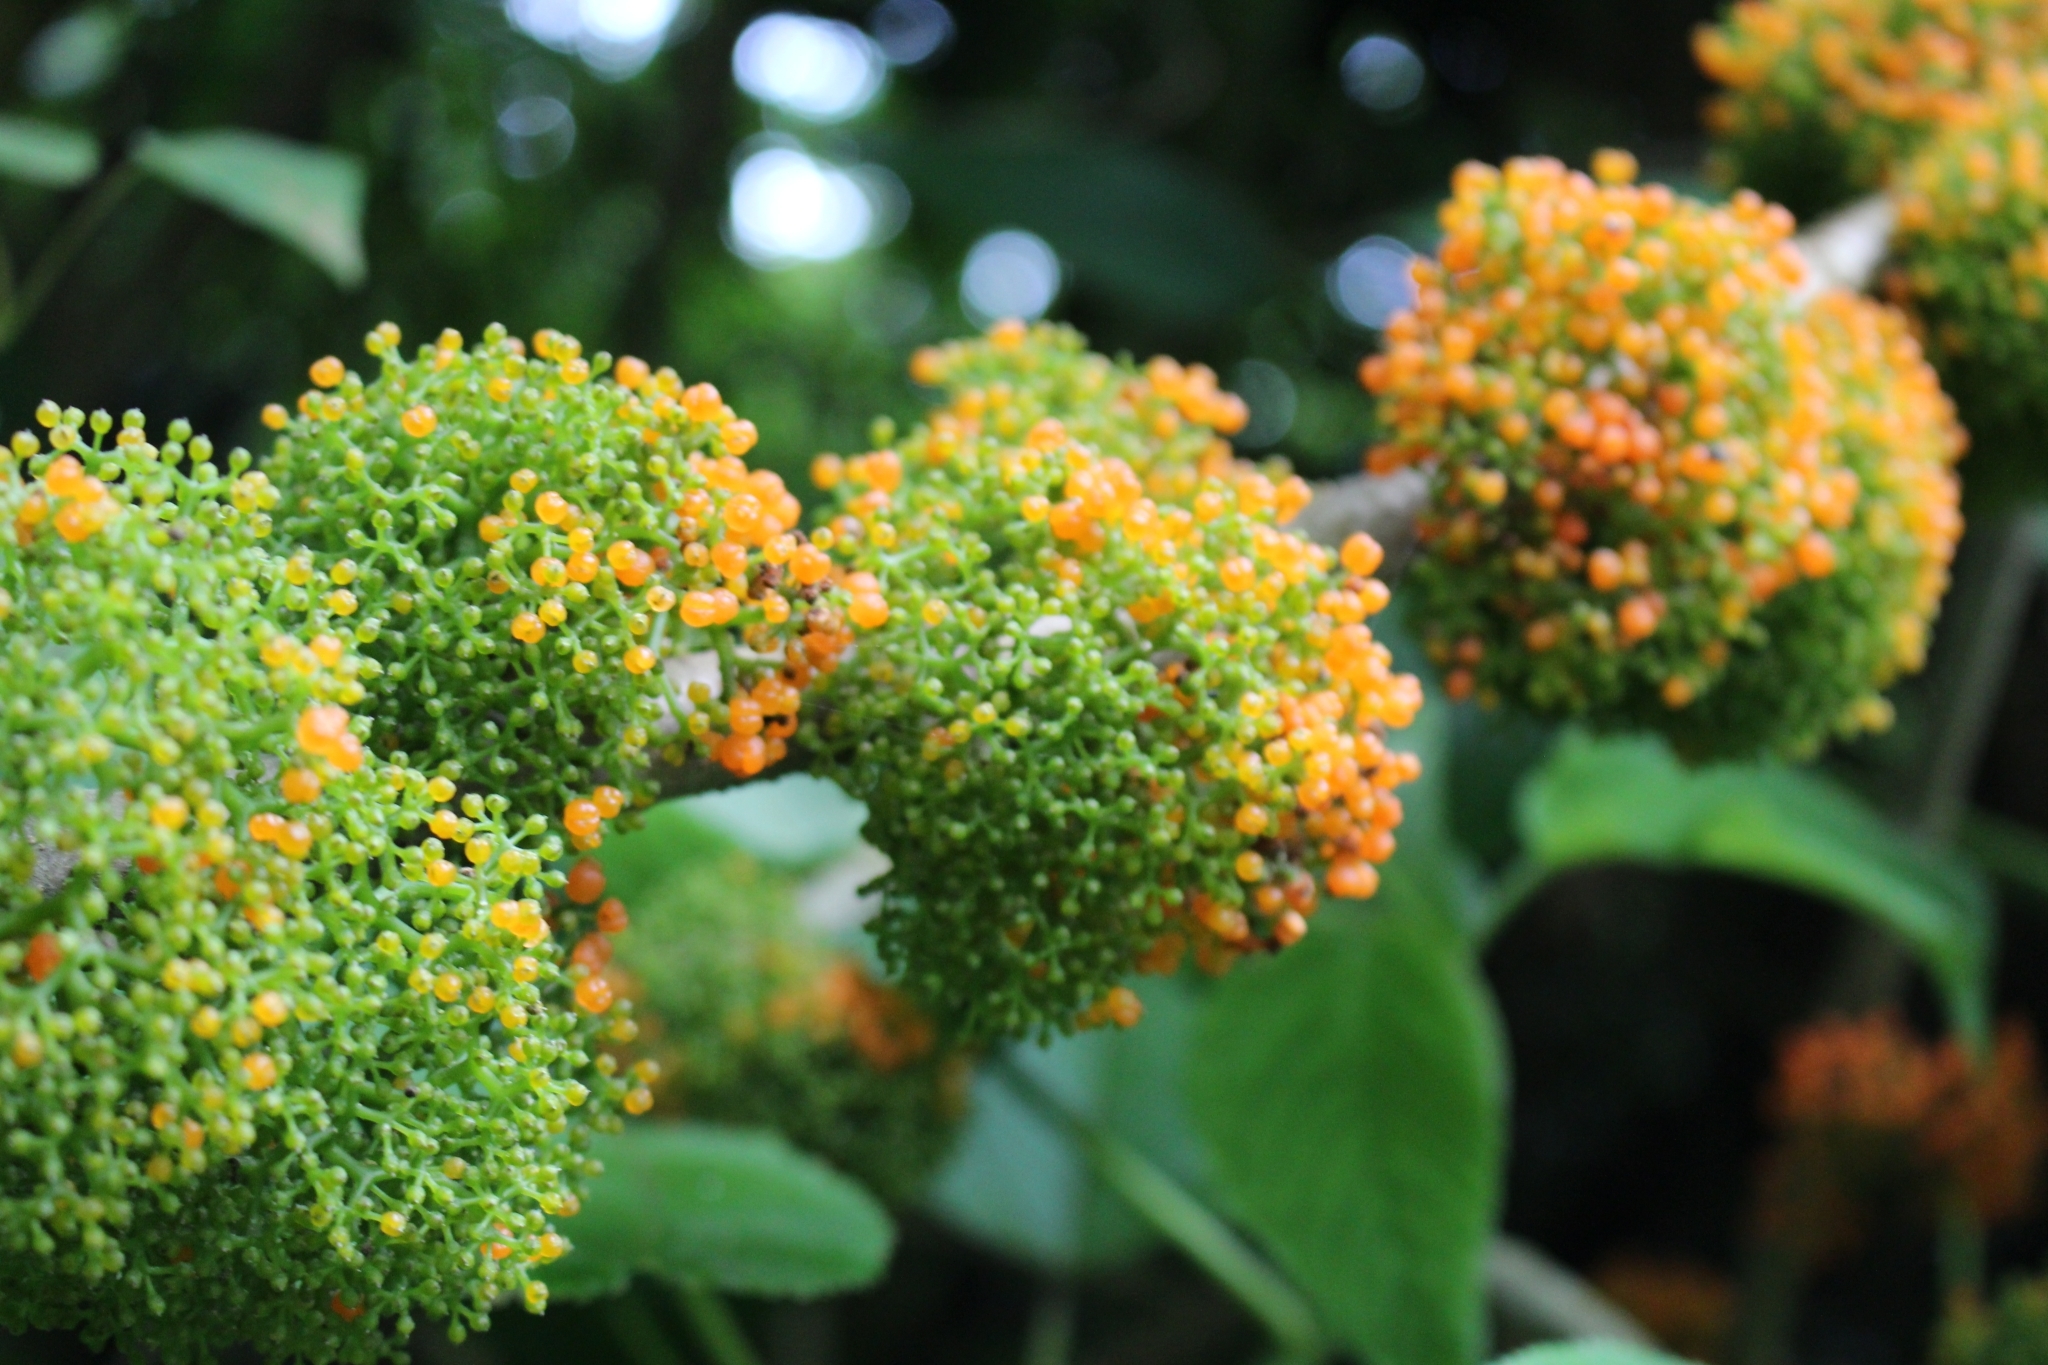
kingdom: Plantae
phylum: Tracheophyta
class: Magnoliopsida
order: Rosales
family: Urticaceae
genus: Urera
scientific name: Urera caracasana
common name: Flameberry
